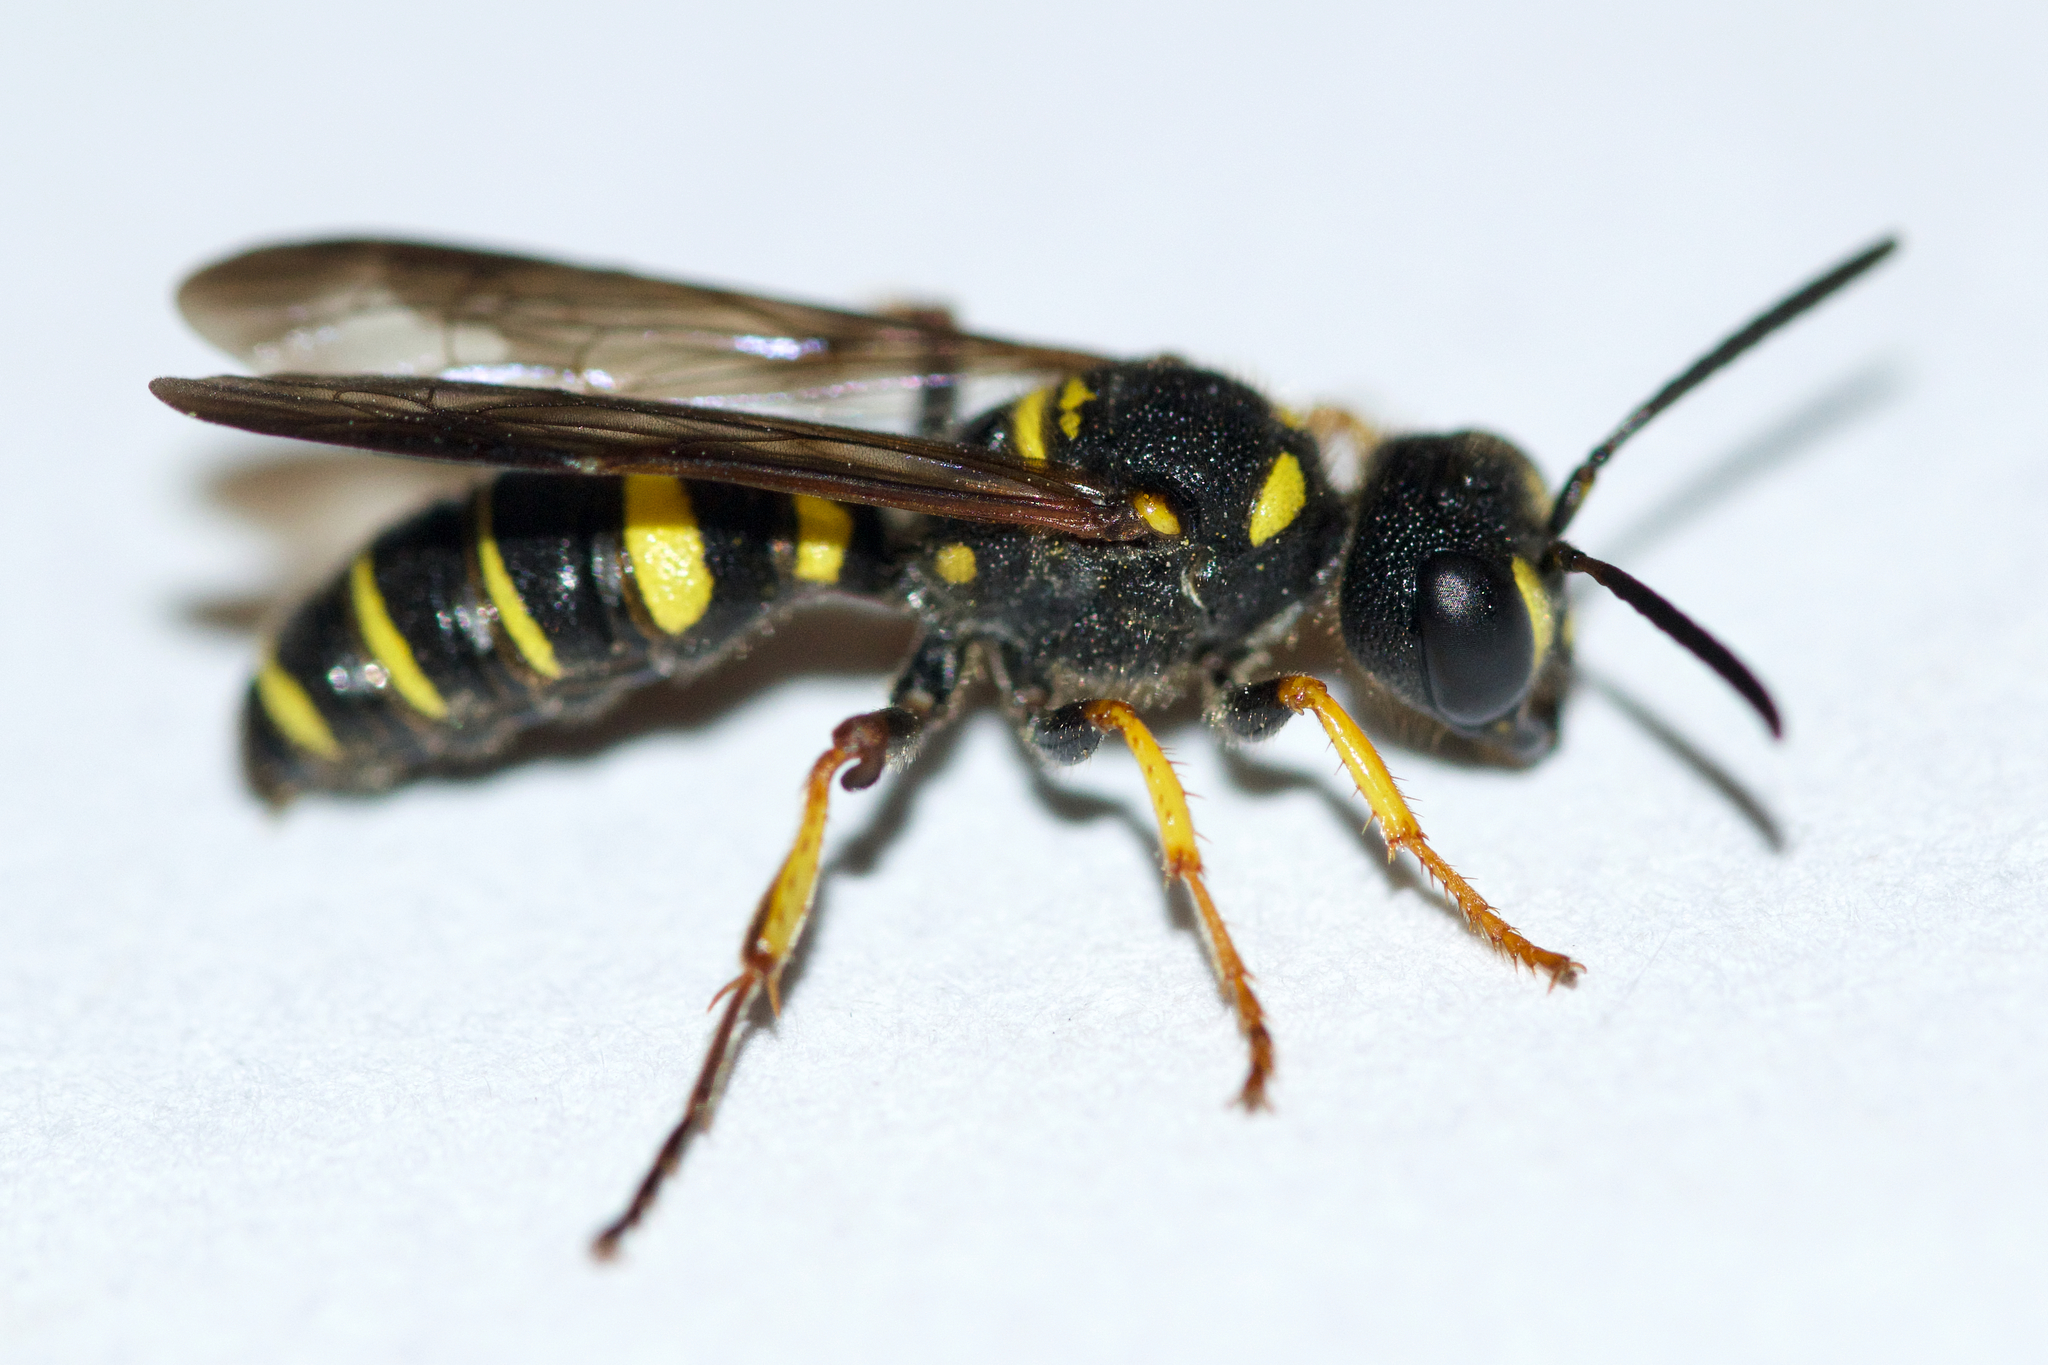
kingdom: Animalia
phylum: Arthropoda
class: Insecta
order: Hymenoptera
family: Crabronidae
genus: Cerceris
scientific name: Cerceris atramontensis
